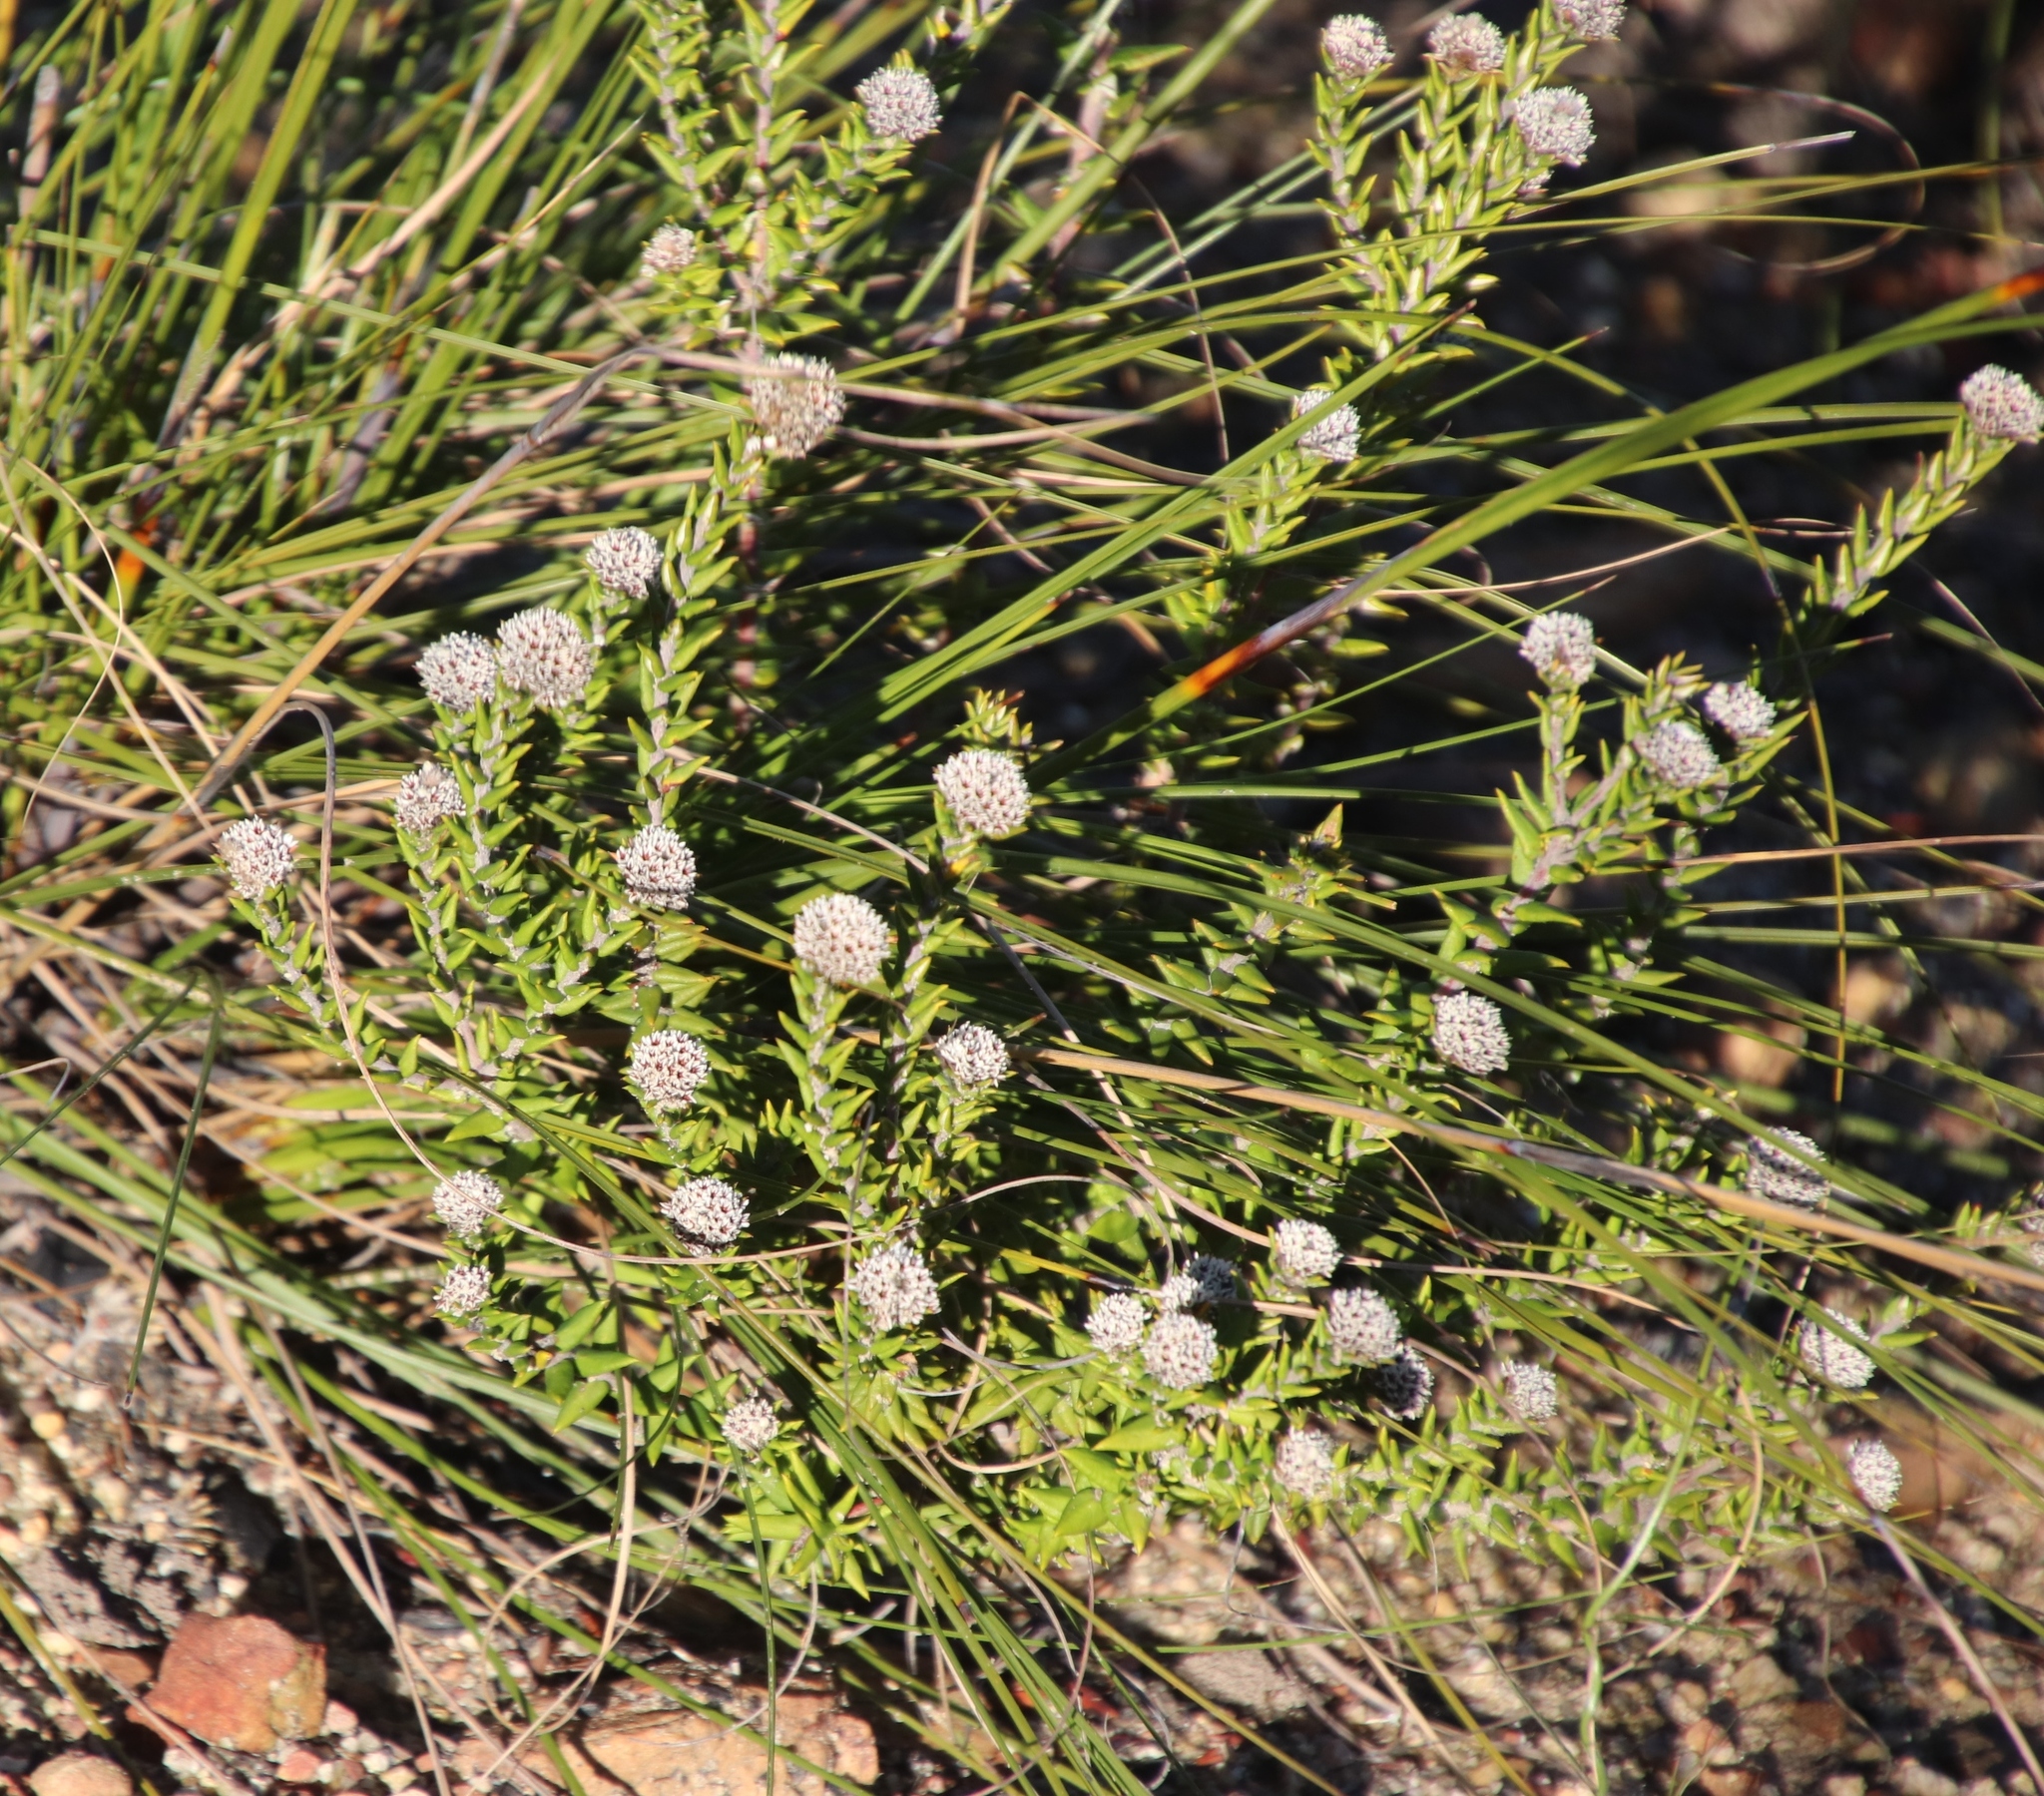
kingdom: Plantae
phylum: Tracheophyta
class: Magnoliopsida
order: Rosales
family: Rhamnaceae
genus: Phylica
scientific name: Phylica callosa
